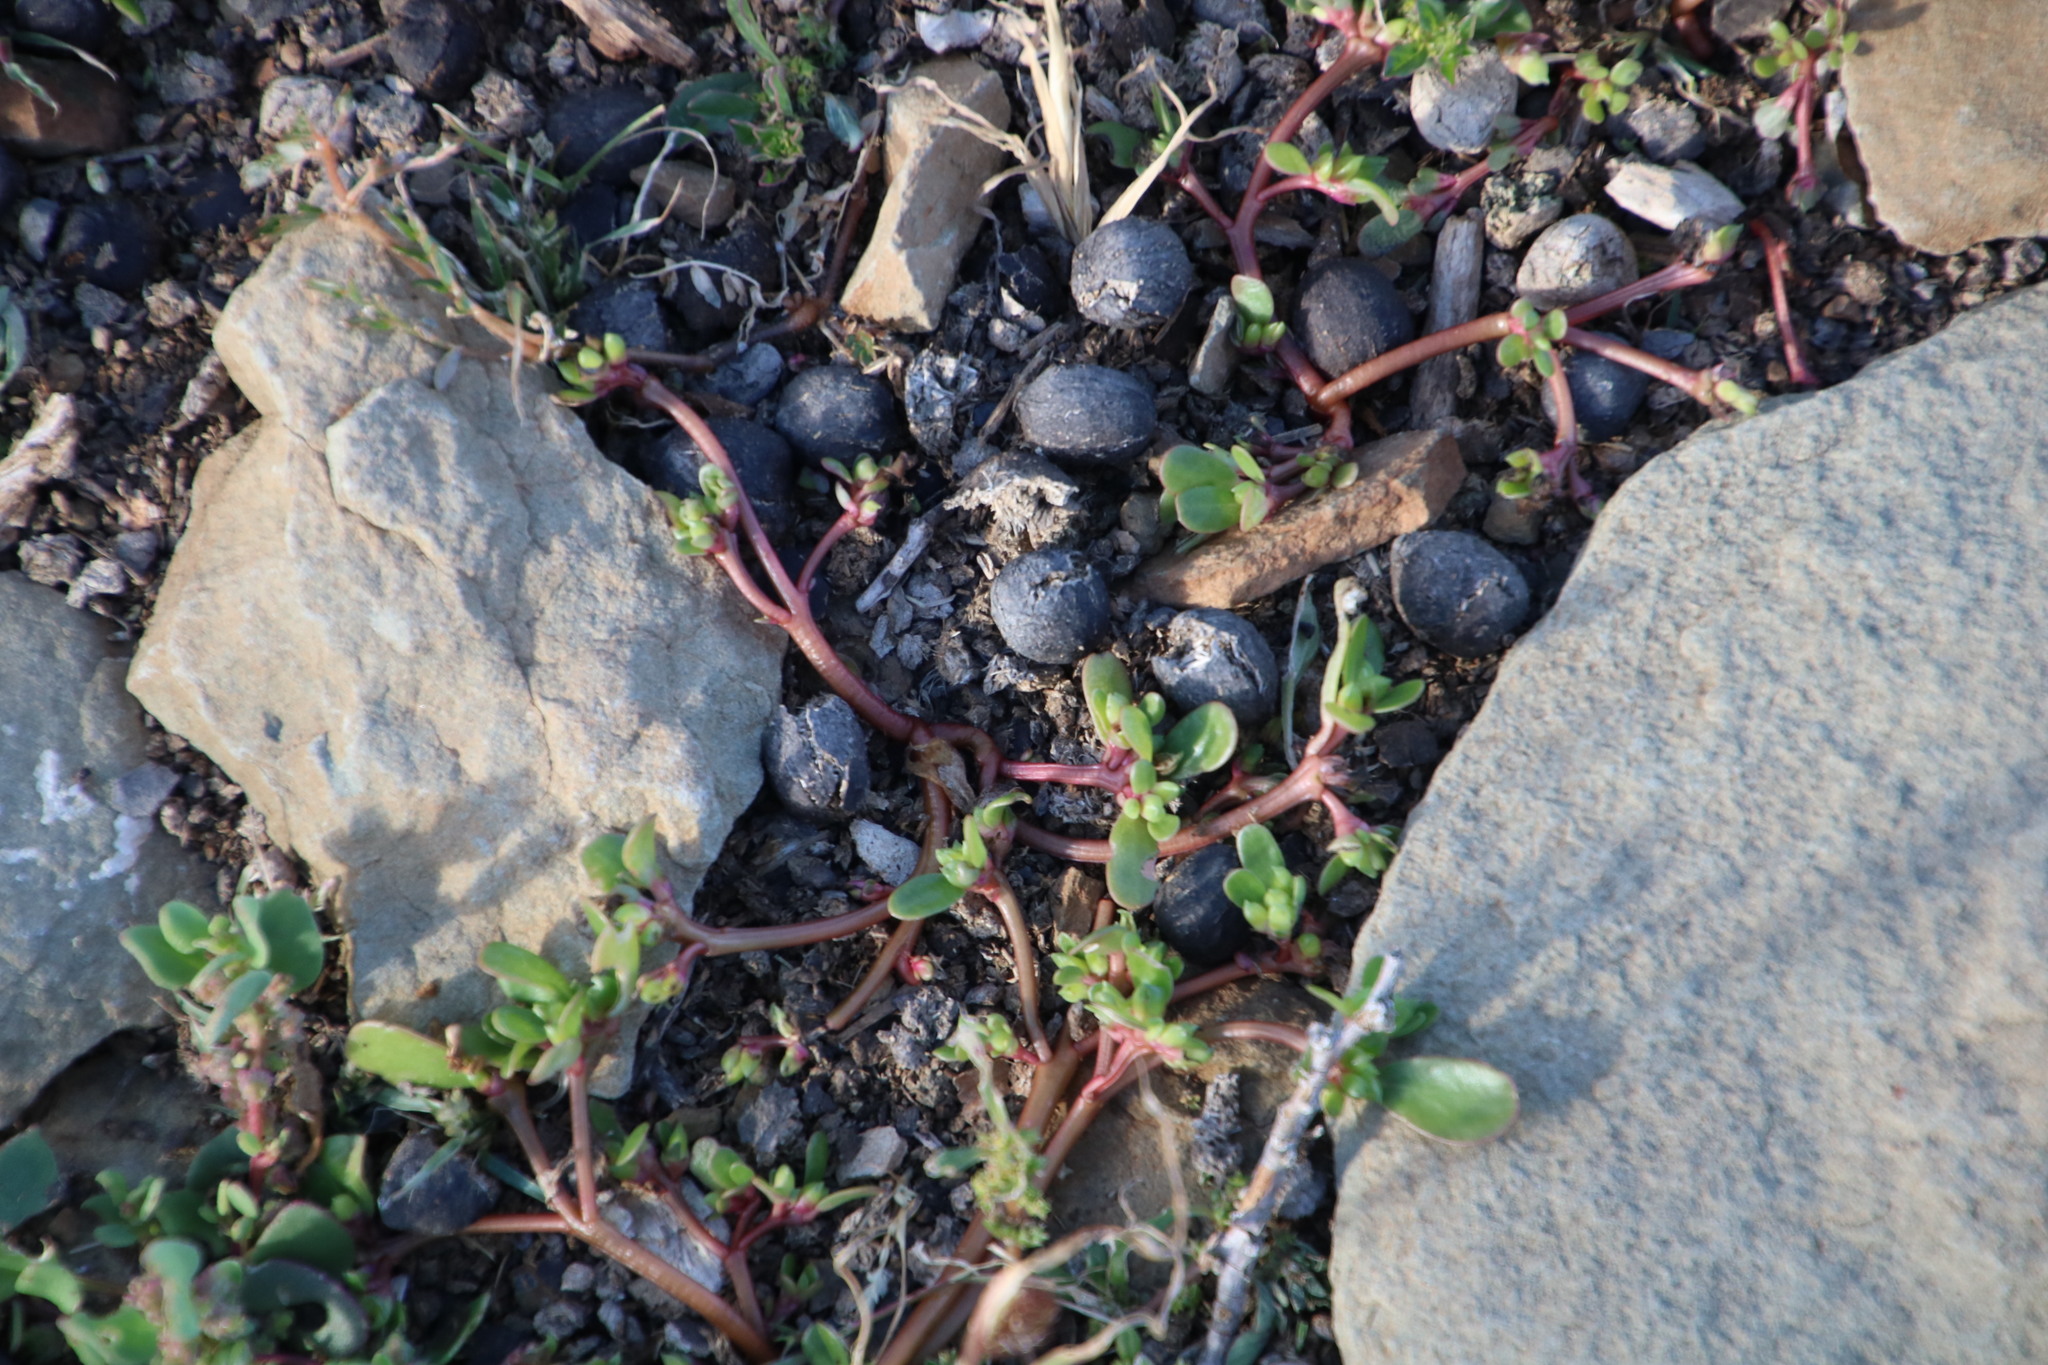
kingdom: Plantae
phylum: Tracheophyta
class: Magnoliopsida
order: Caryophyllales
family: Portulacaceae
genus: Portulaca
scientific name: Portulaca oleracea
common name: Common purslane
